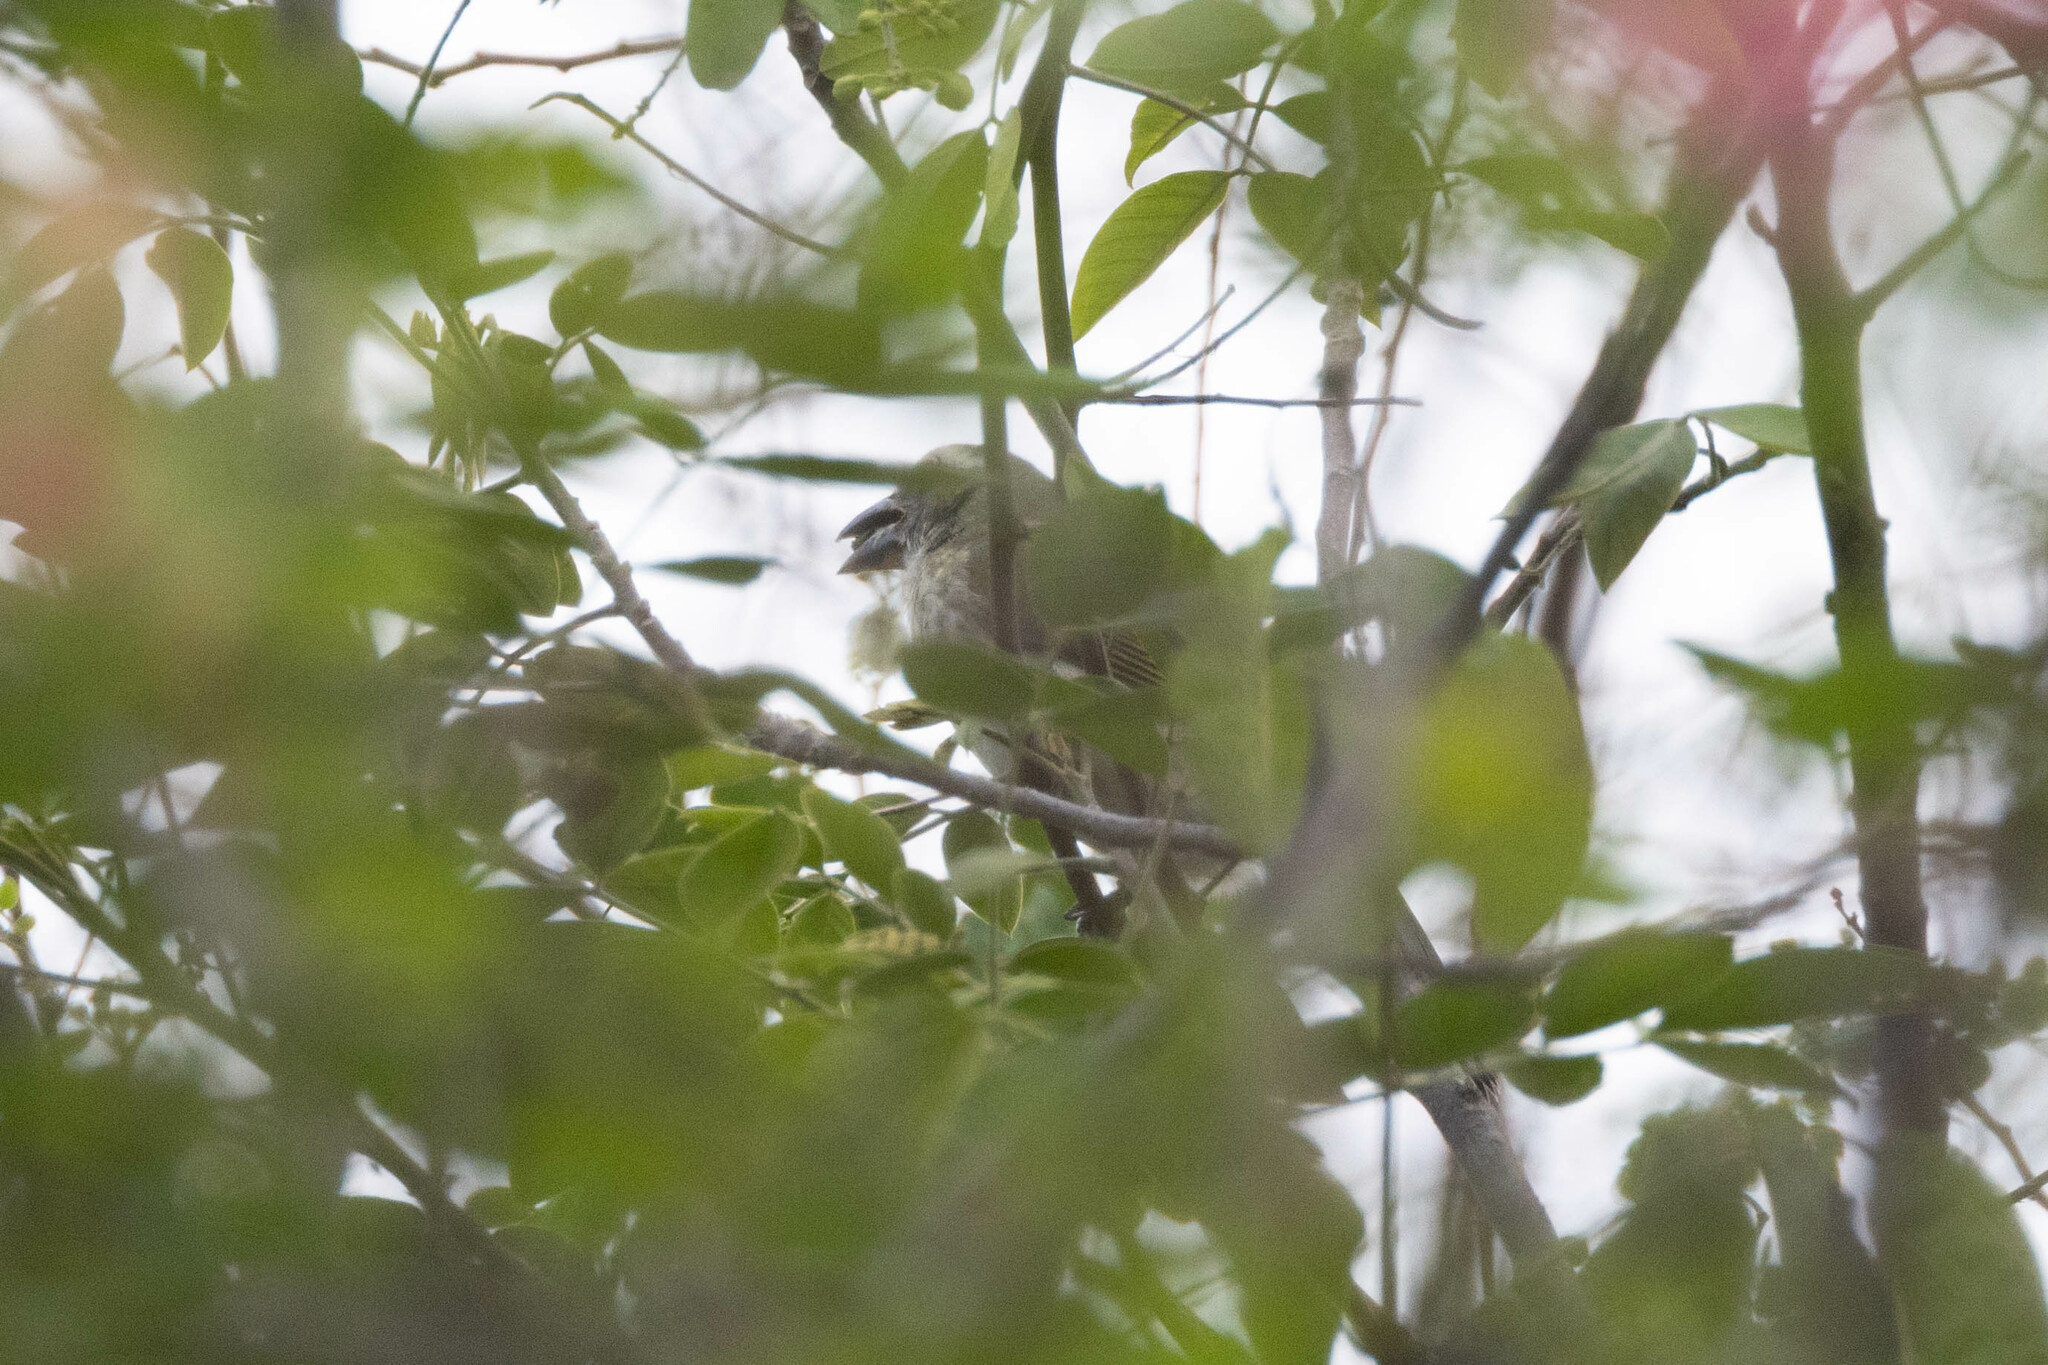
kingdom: Animalia
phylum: Chordata
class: Aves
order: Passeriformes
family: Thraupidae
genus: Saltator
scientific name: Saltator striatipectus
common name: Streaked saltator
